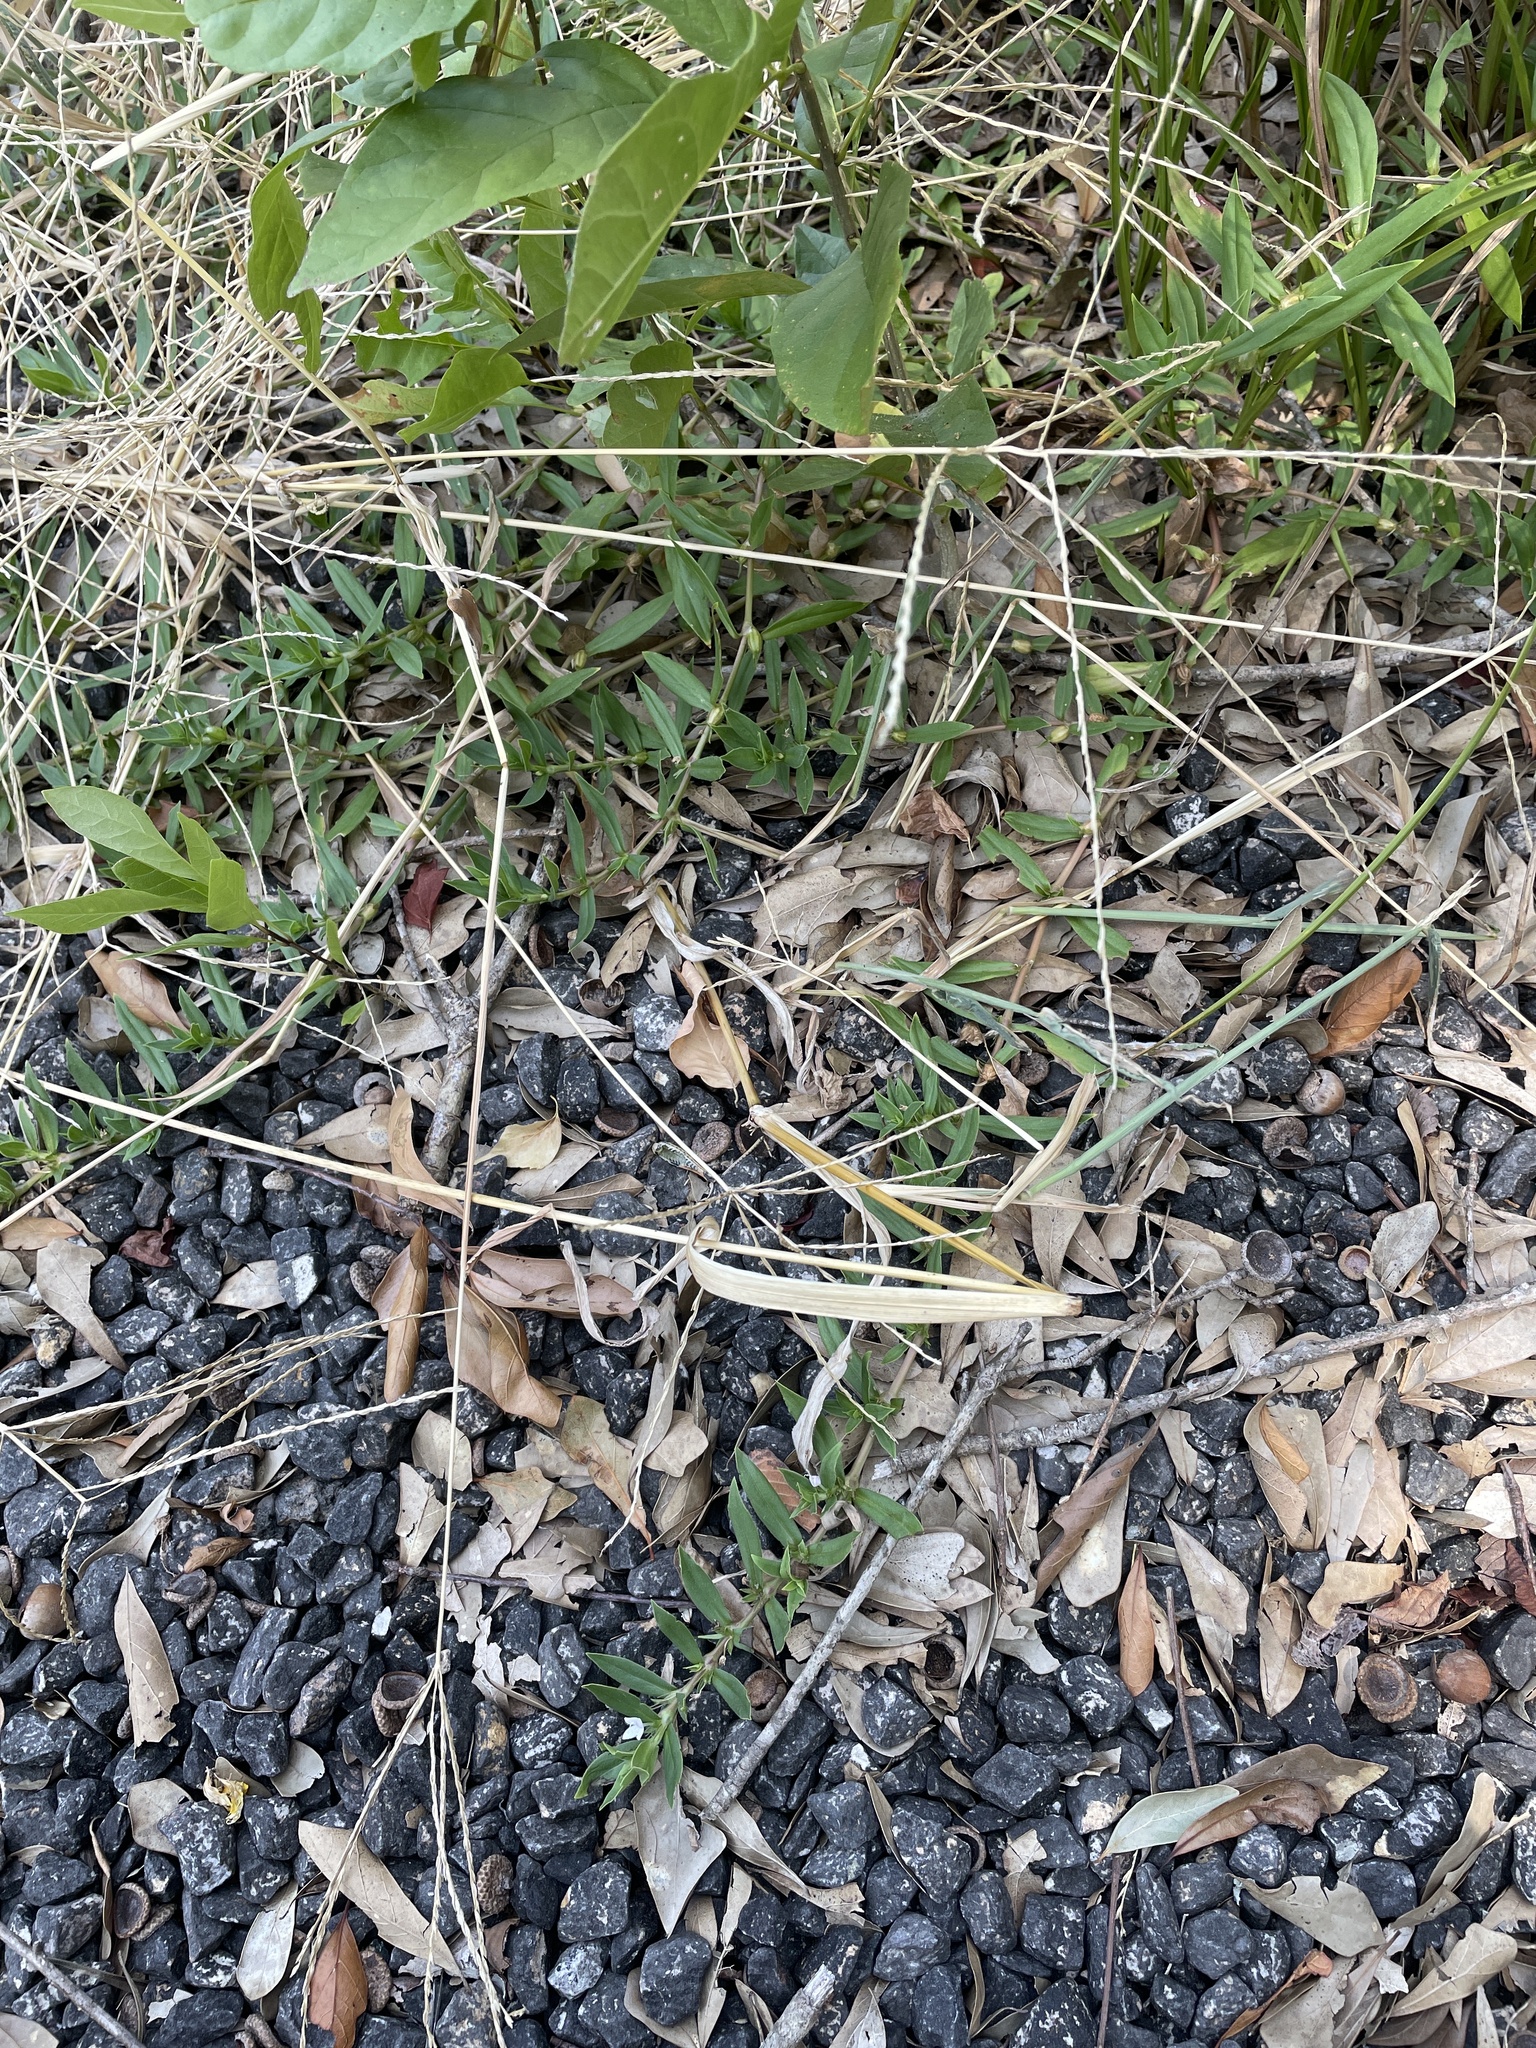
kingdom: Plantae
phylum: Tracheophyta
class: Magnoliopsida
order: Gentianales
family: Rubiaceae
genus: Diodia
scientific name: Diodia virginiana
